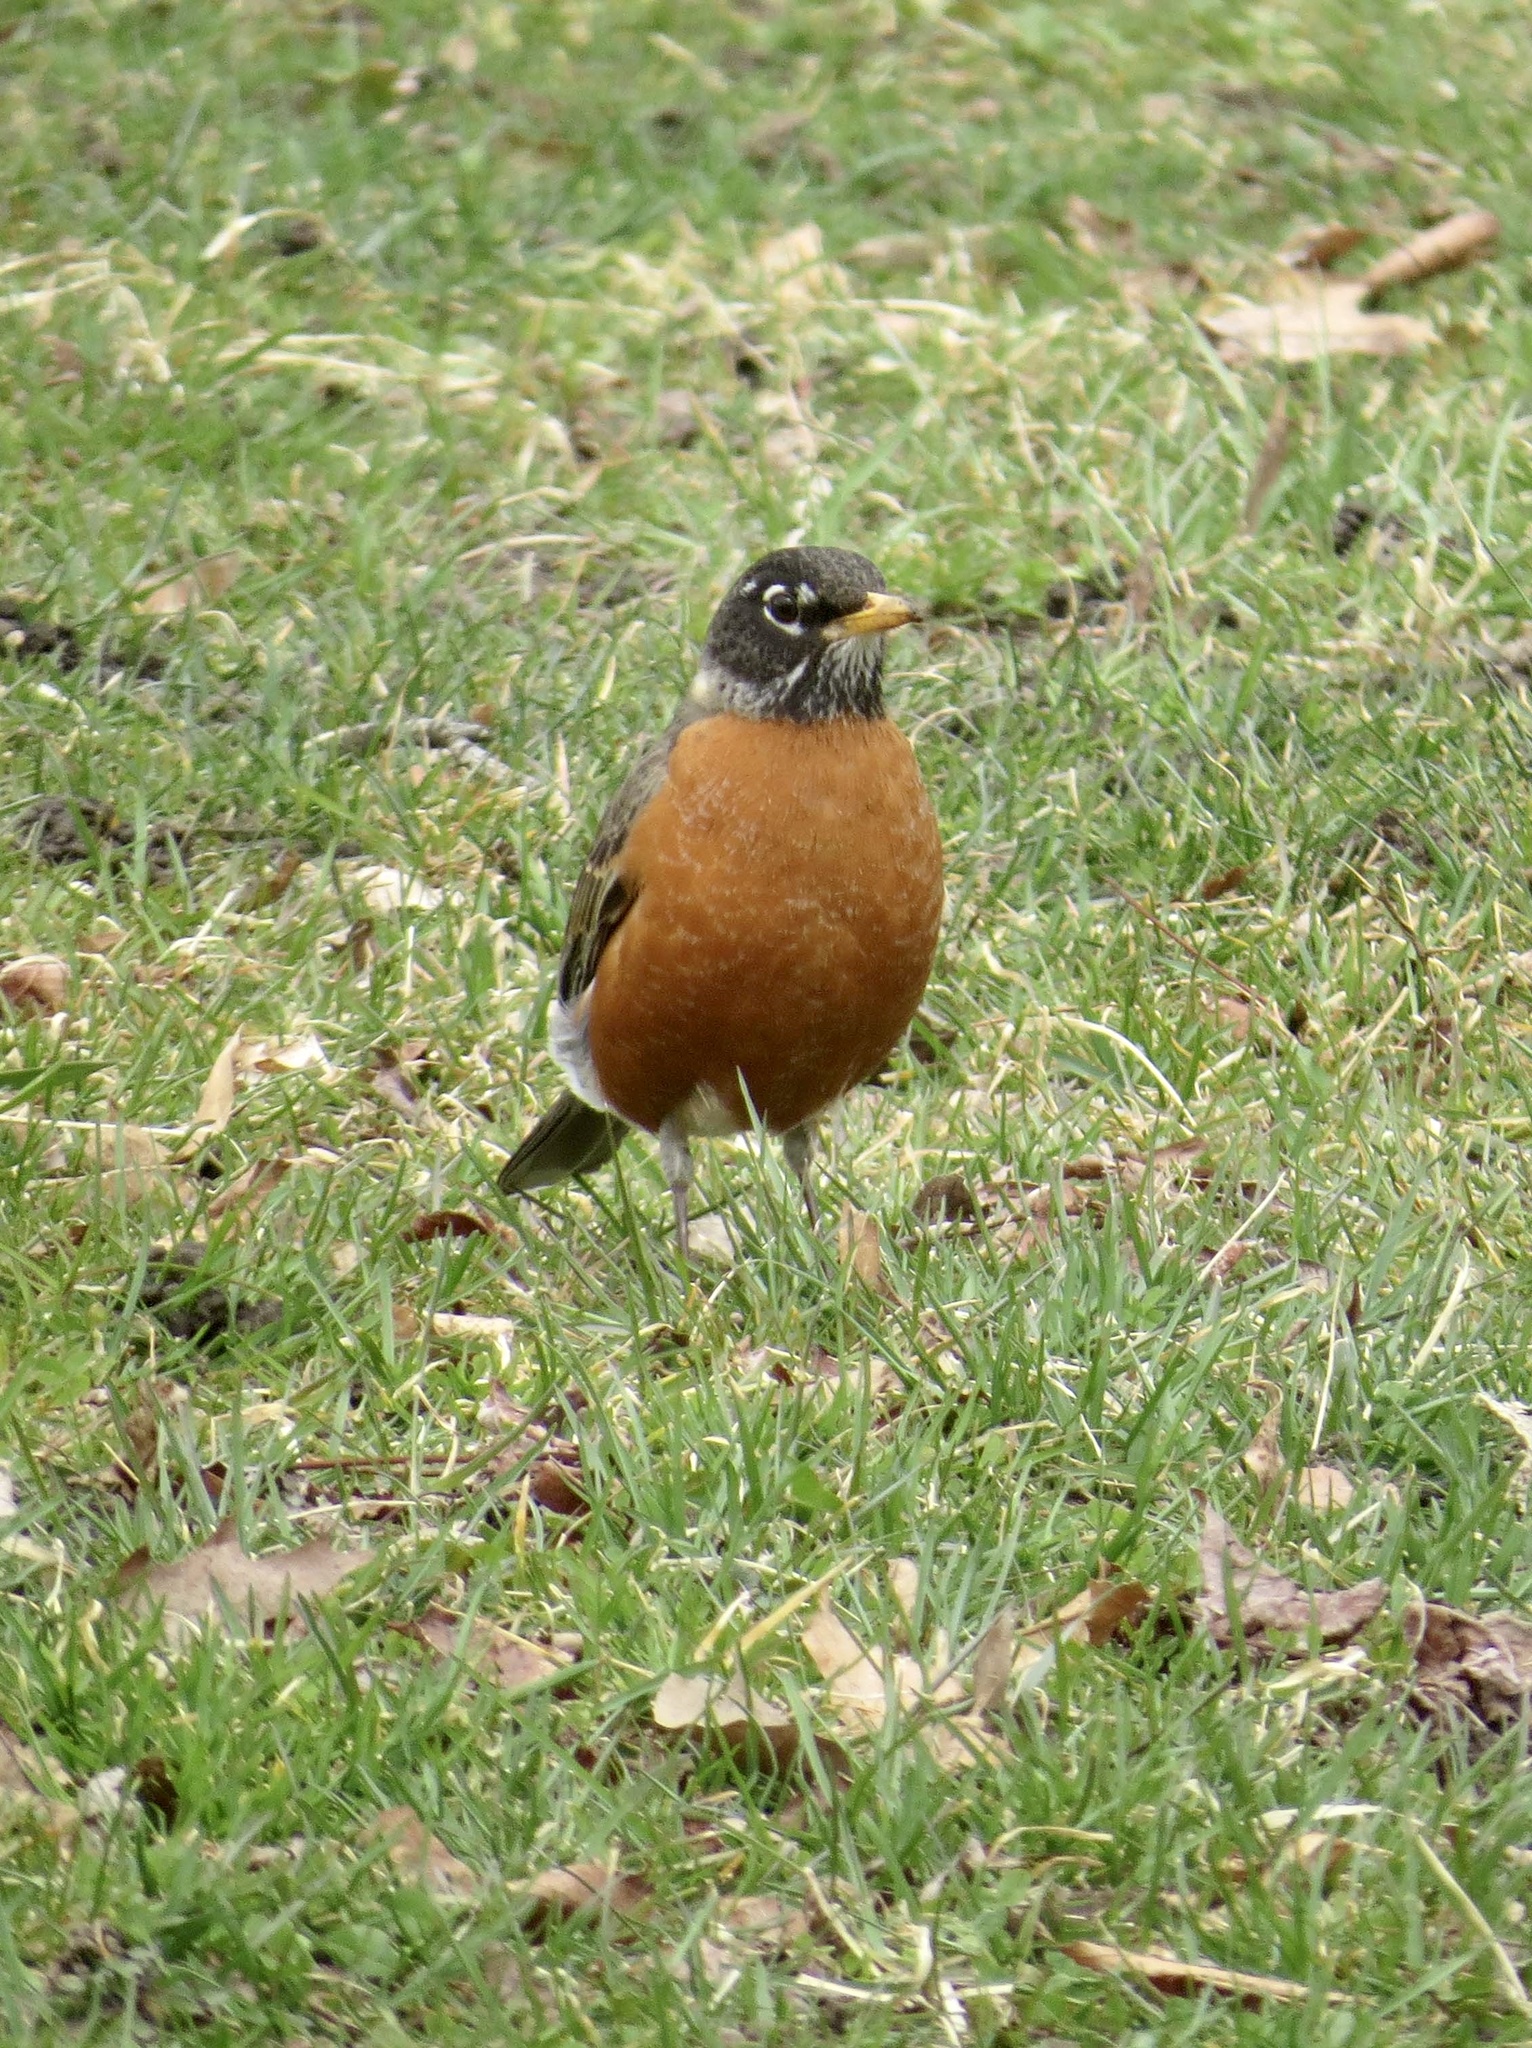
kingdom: Animalia
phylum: Chordata
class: Aves
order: Passeriformes
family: Turdidae
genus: Turdus
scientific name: Turdus migratorius
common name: American robin
